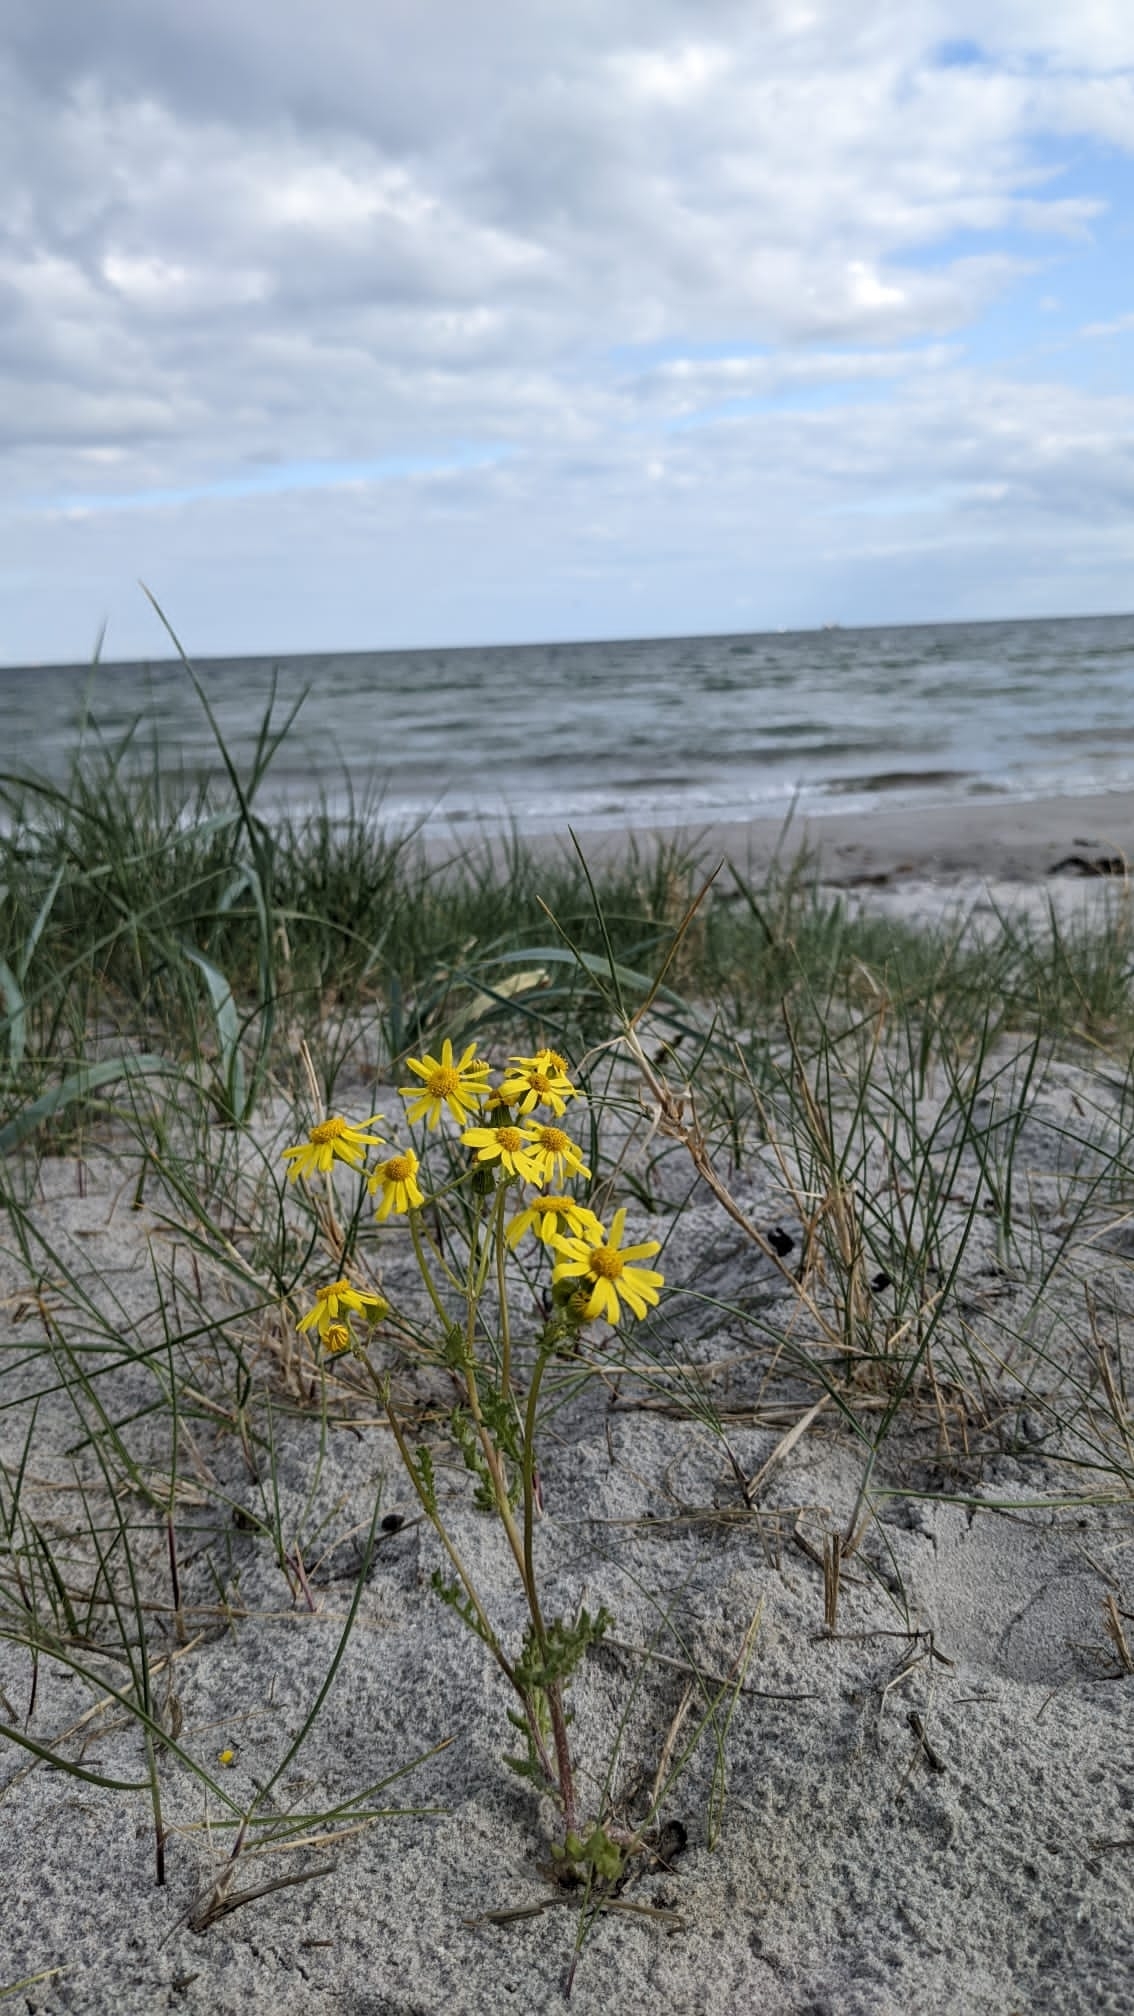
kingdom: Plantae
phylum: Tracheophyta
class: Magnoliopsida
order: Asterales
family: Asteraceae
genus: Jacobaea
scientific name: Jacobaea vulgaris
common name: Stinking willie
